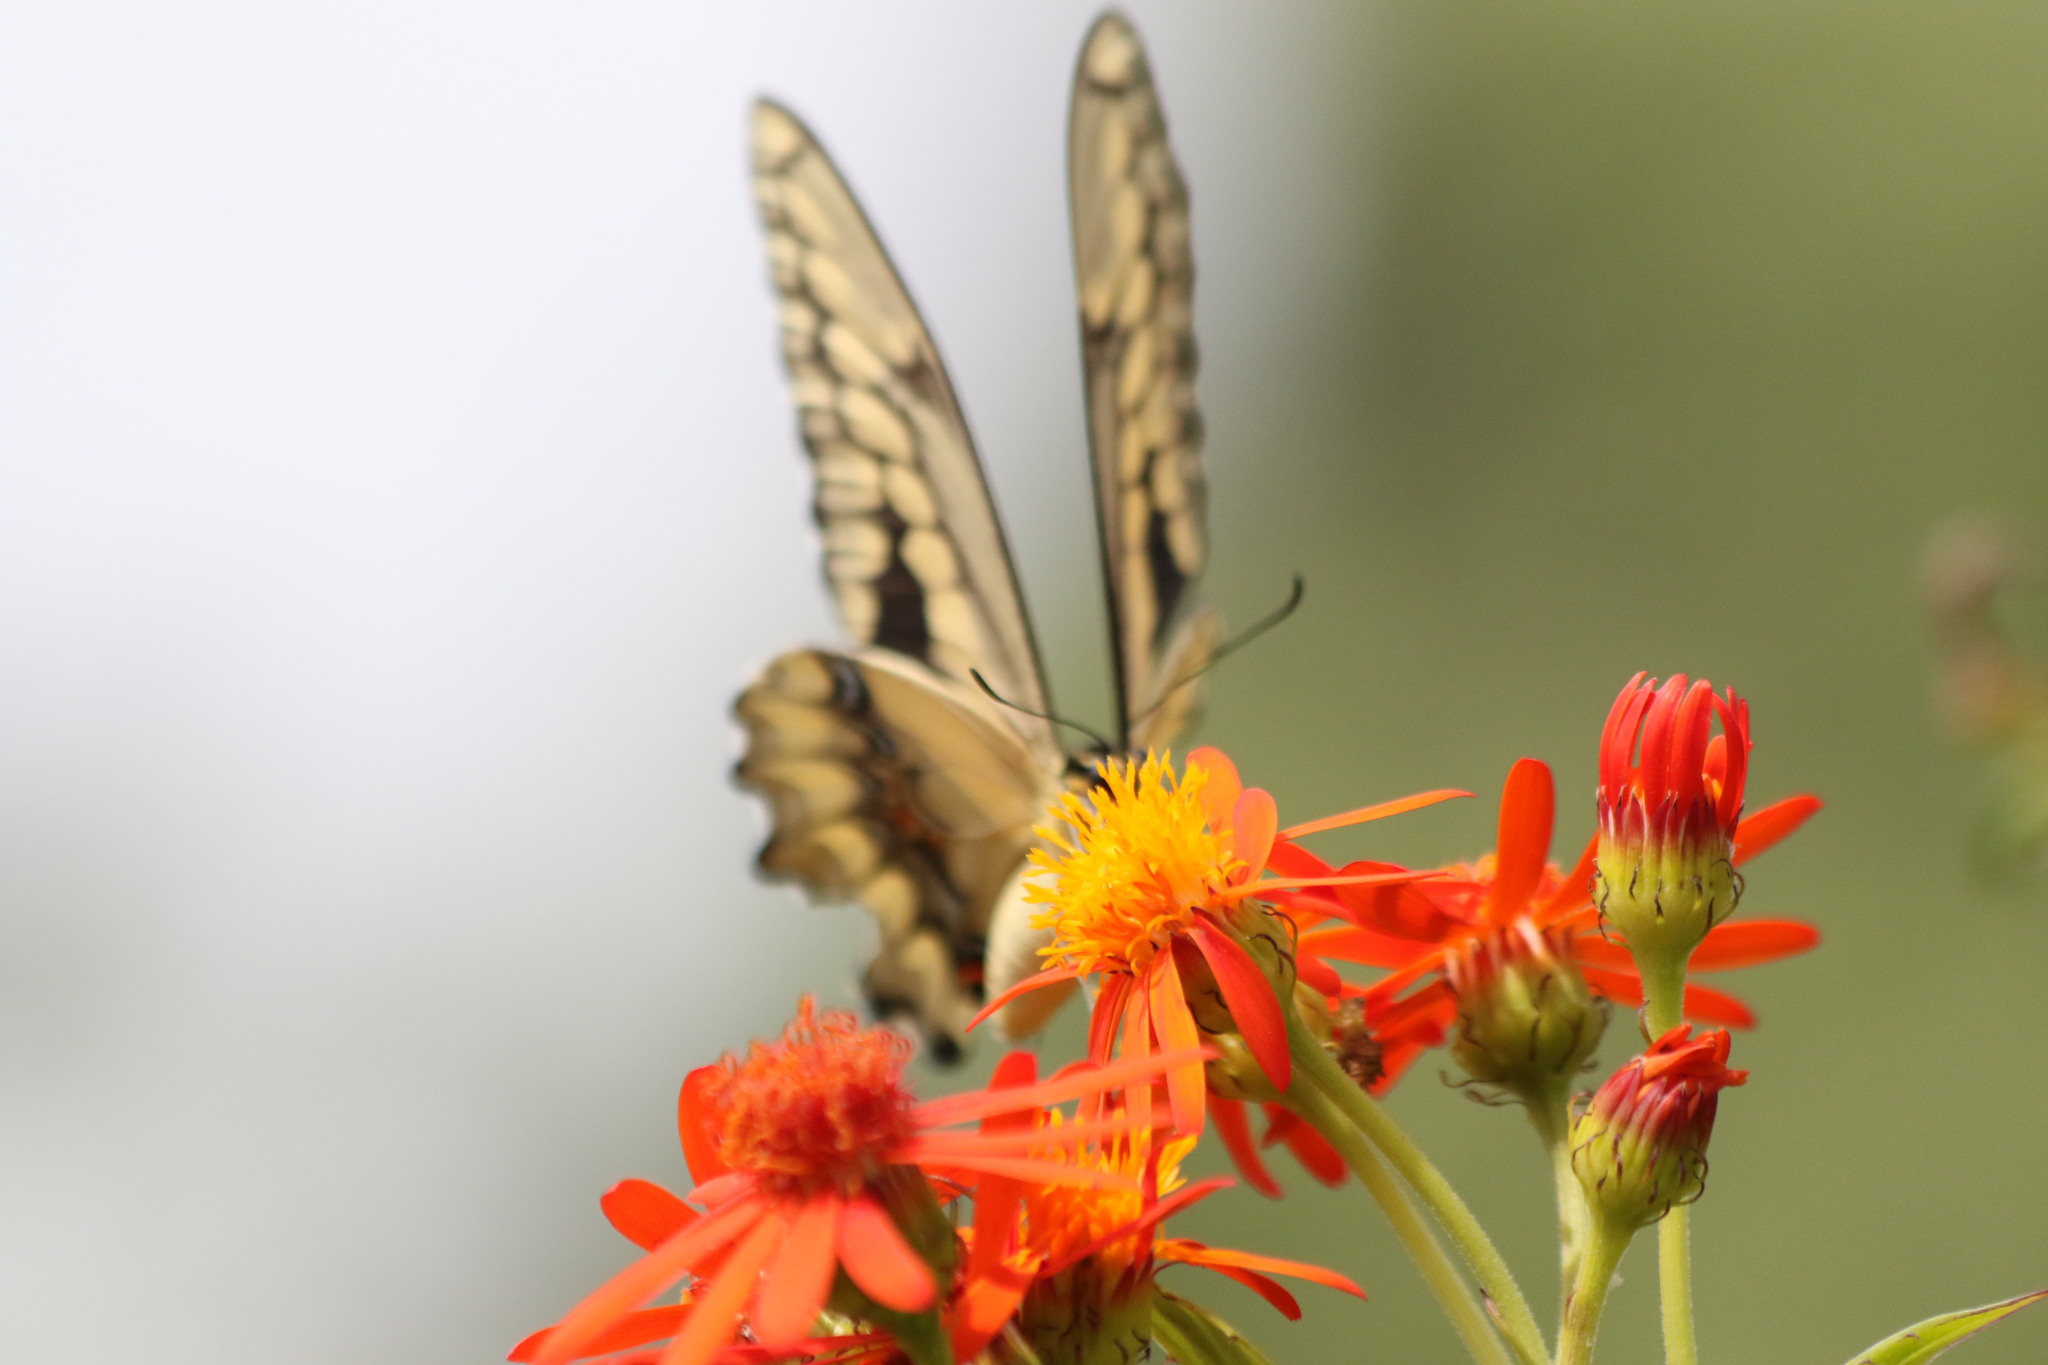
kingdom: Animalia
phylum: Arthropoda
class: Insecta
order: Lepidoptera
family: Papilionidae
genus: Papilio
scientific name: Papilio rumiko
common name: Western giant swallowtail
